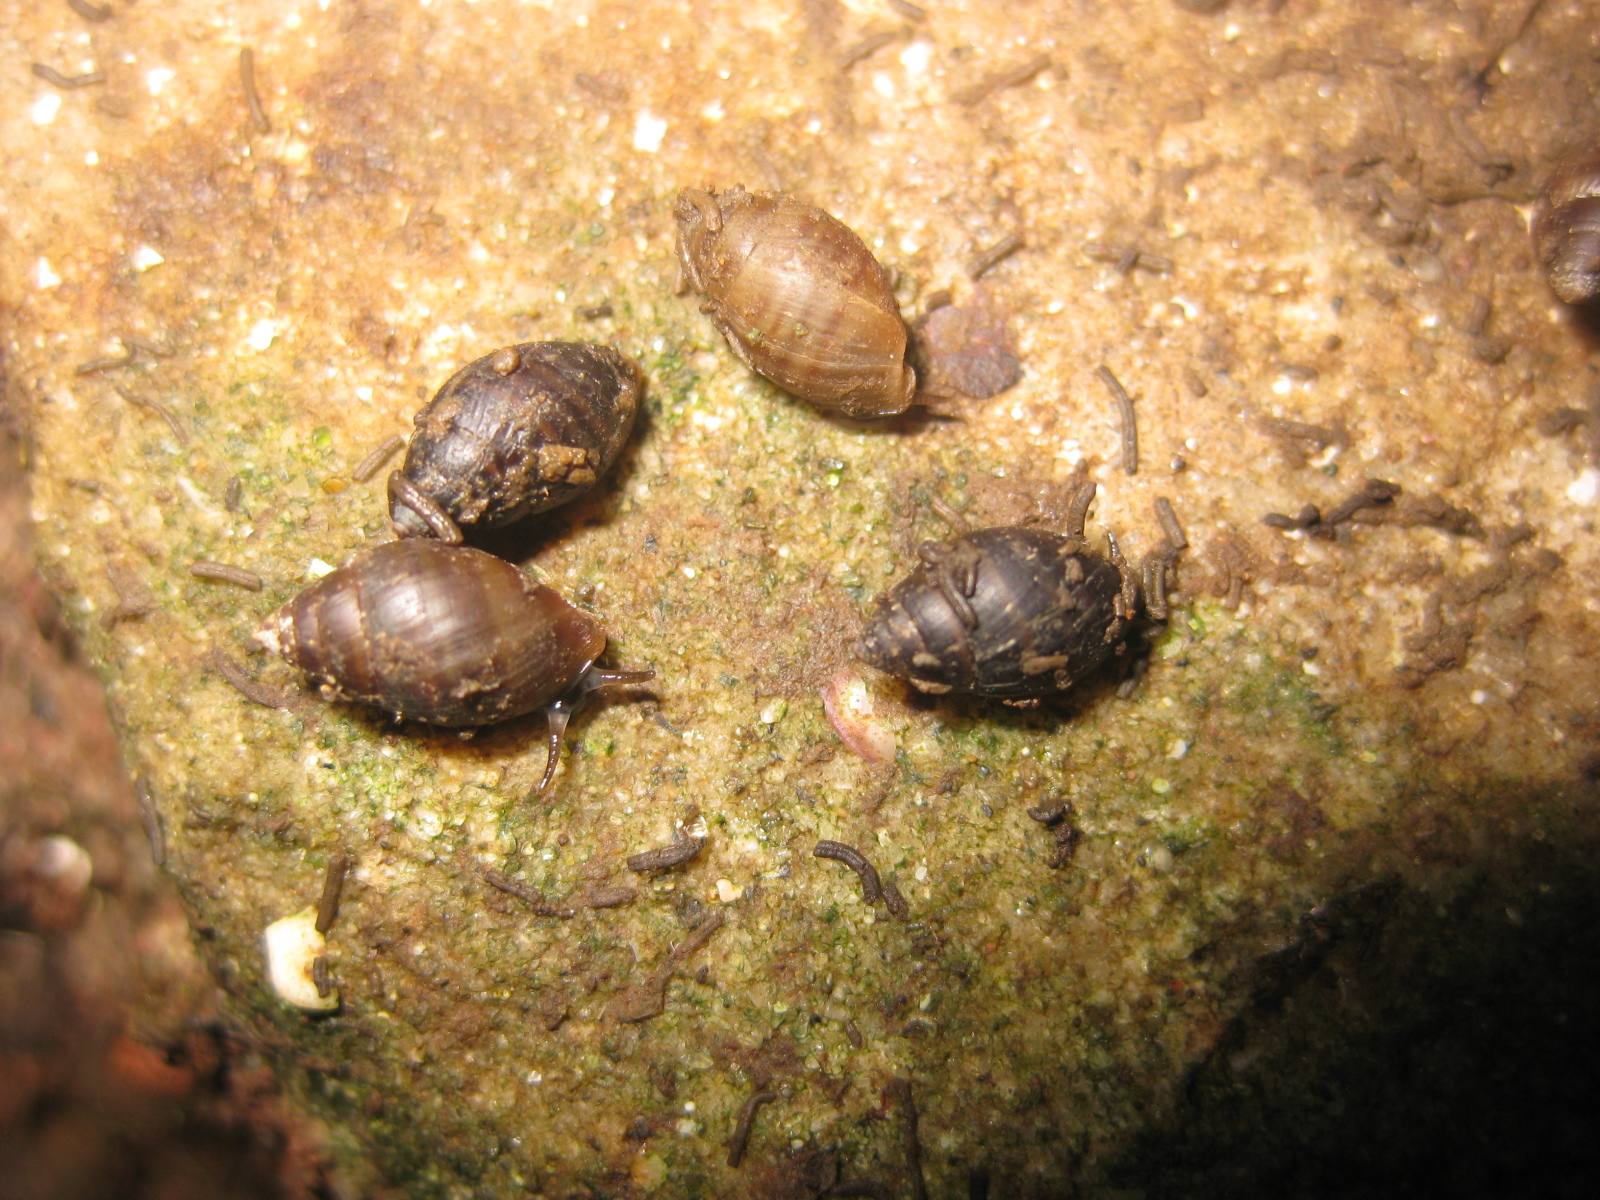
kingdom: Animalia
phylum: Mollusca
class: Gastropoda
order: Ellobiida
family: Ellobiidae
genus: Pleuroloba
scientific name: Pleuroloba costellaris
